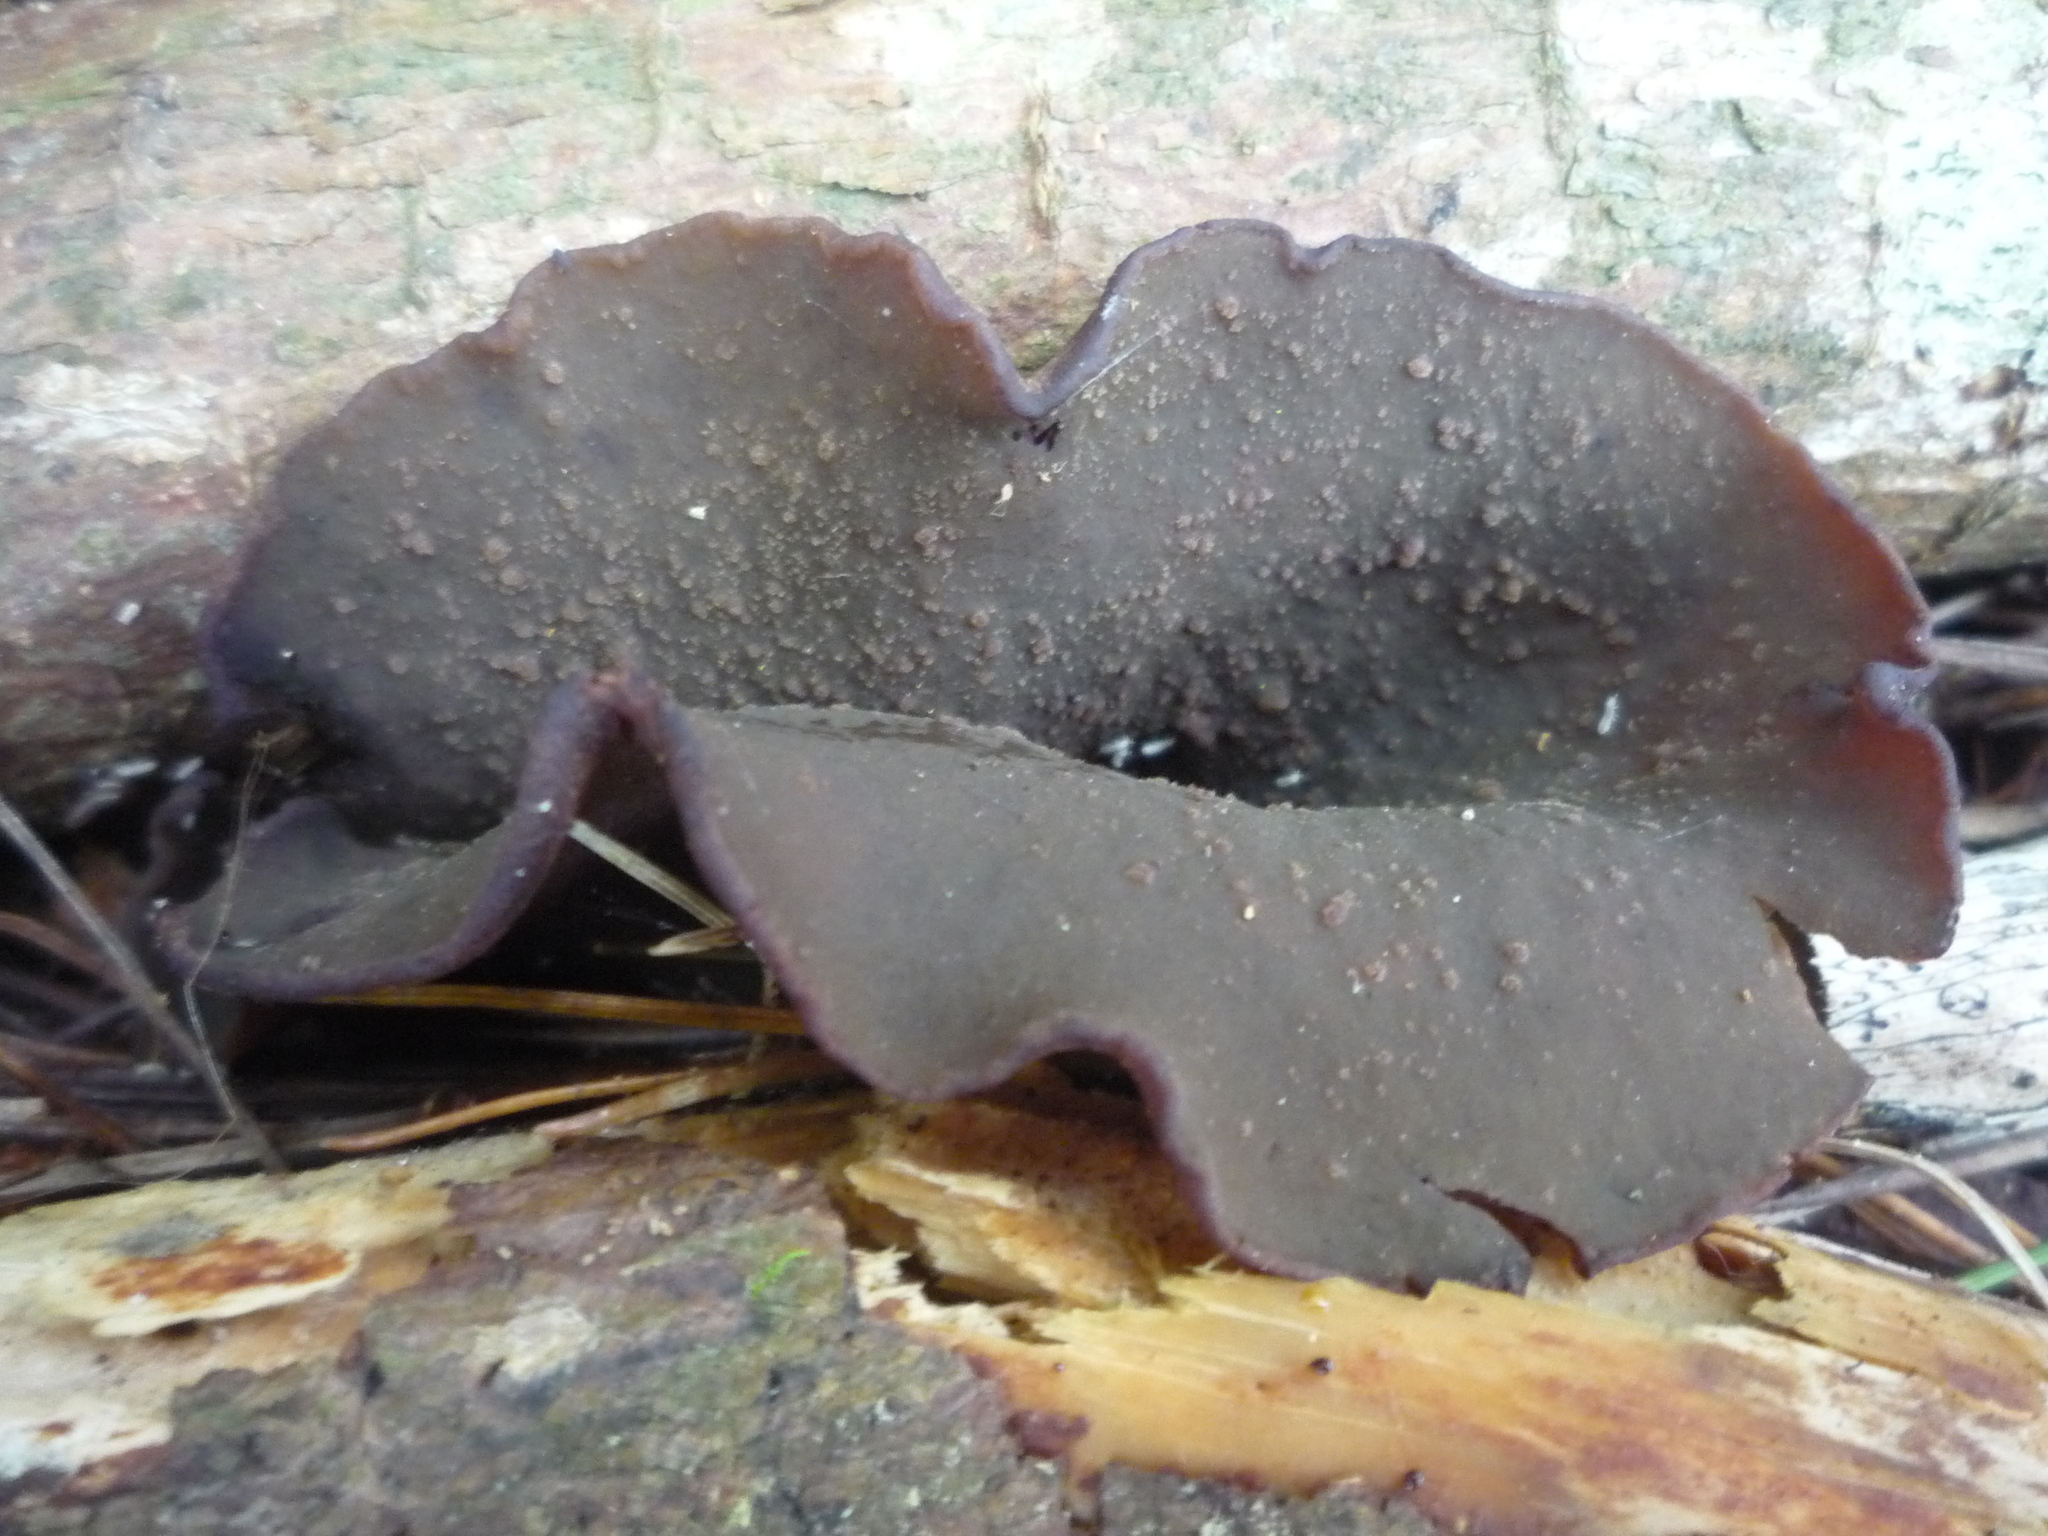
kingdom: Fungi
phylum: Ascomycota
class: Pezizomycetes
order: Pezizales
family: Pezizaceae
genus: Legaliana
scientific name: Legaliana badia
